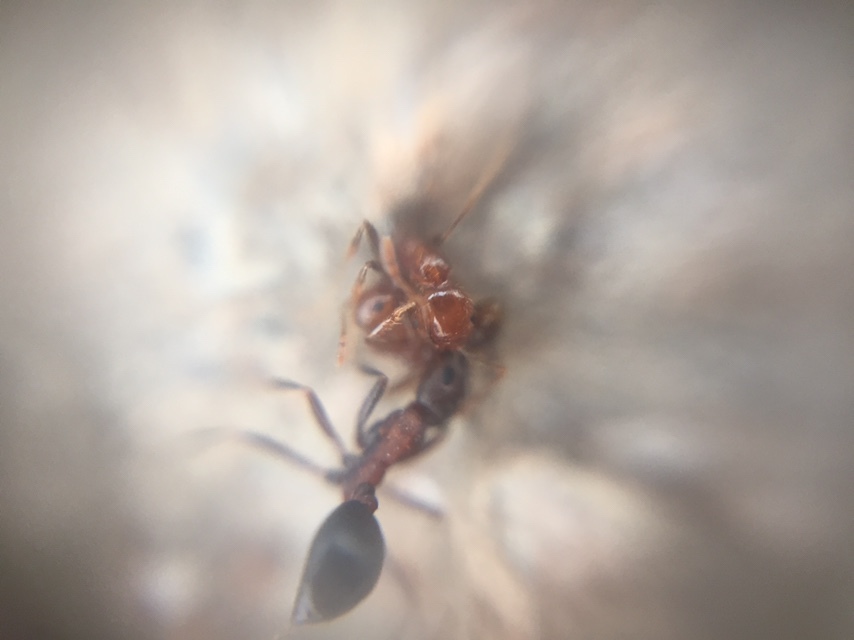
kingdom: Animalia
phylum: Arthropoda
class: Insecta
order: Hymenoptera
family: Formicidae
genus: Solenopsis
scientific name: Solenopsis geminata
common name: Tropical fire ant
